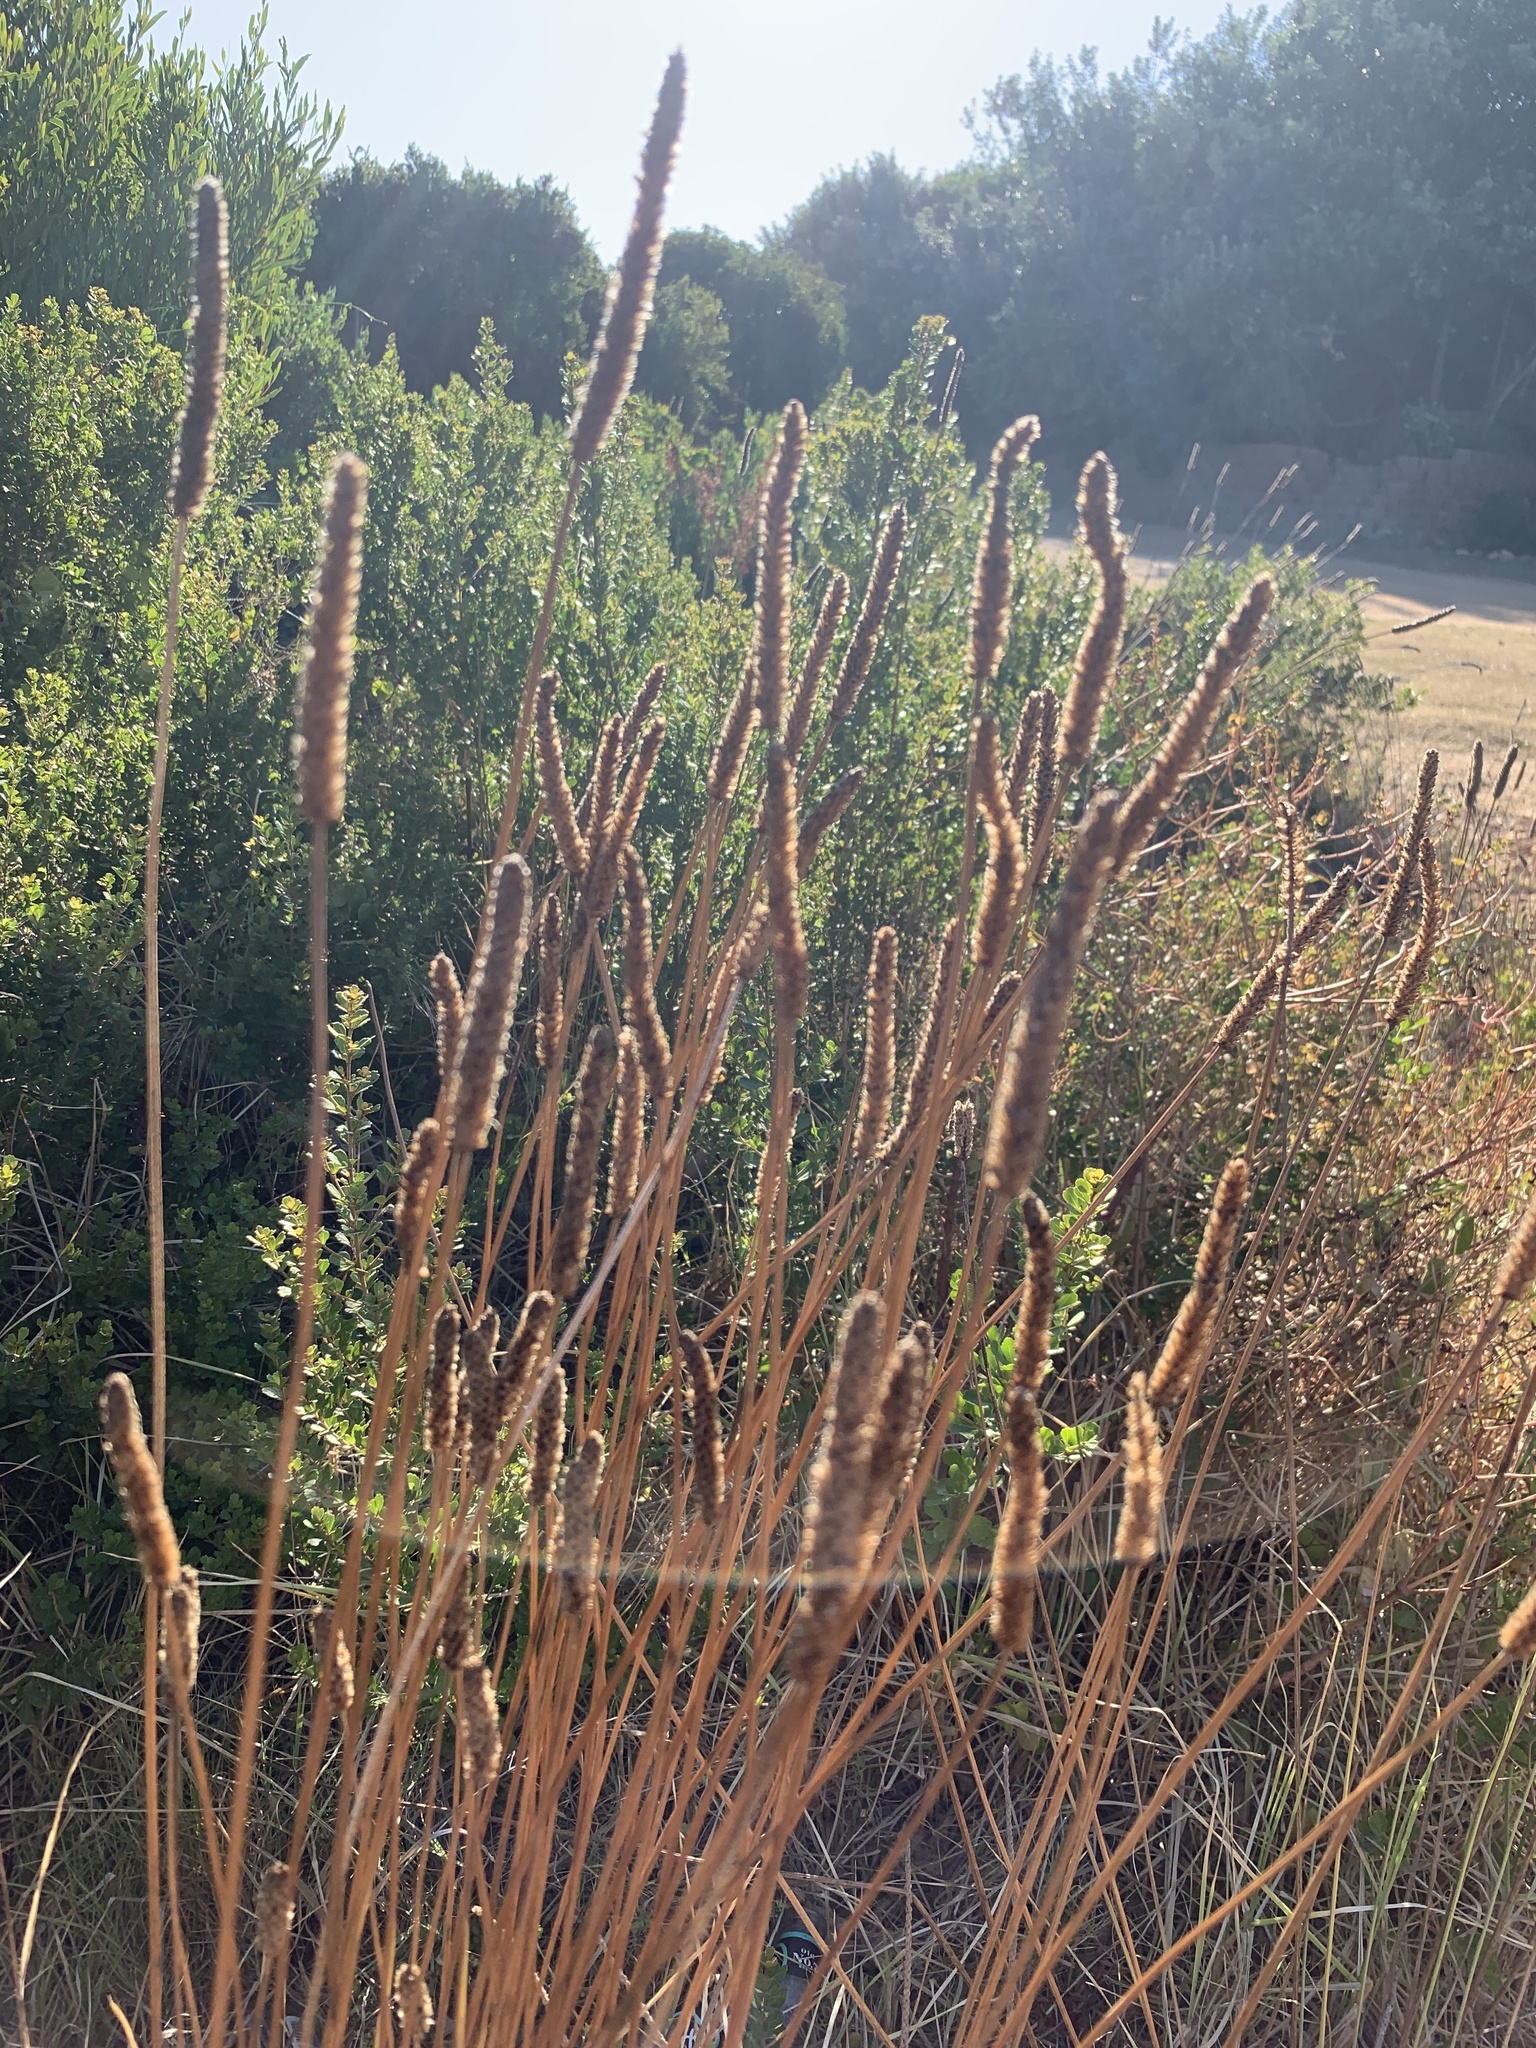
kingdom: Plantae
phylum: Tracheophyta
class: Magnoliopsida
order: Lamiales
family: Plantaginaceae
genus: Plantago
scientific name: Plantago lanceolata
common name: Ribwort plantain
